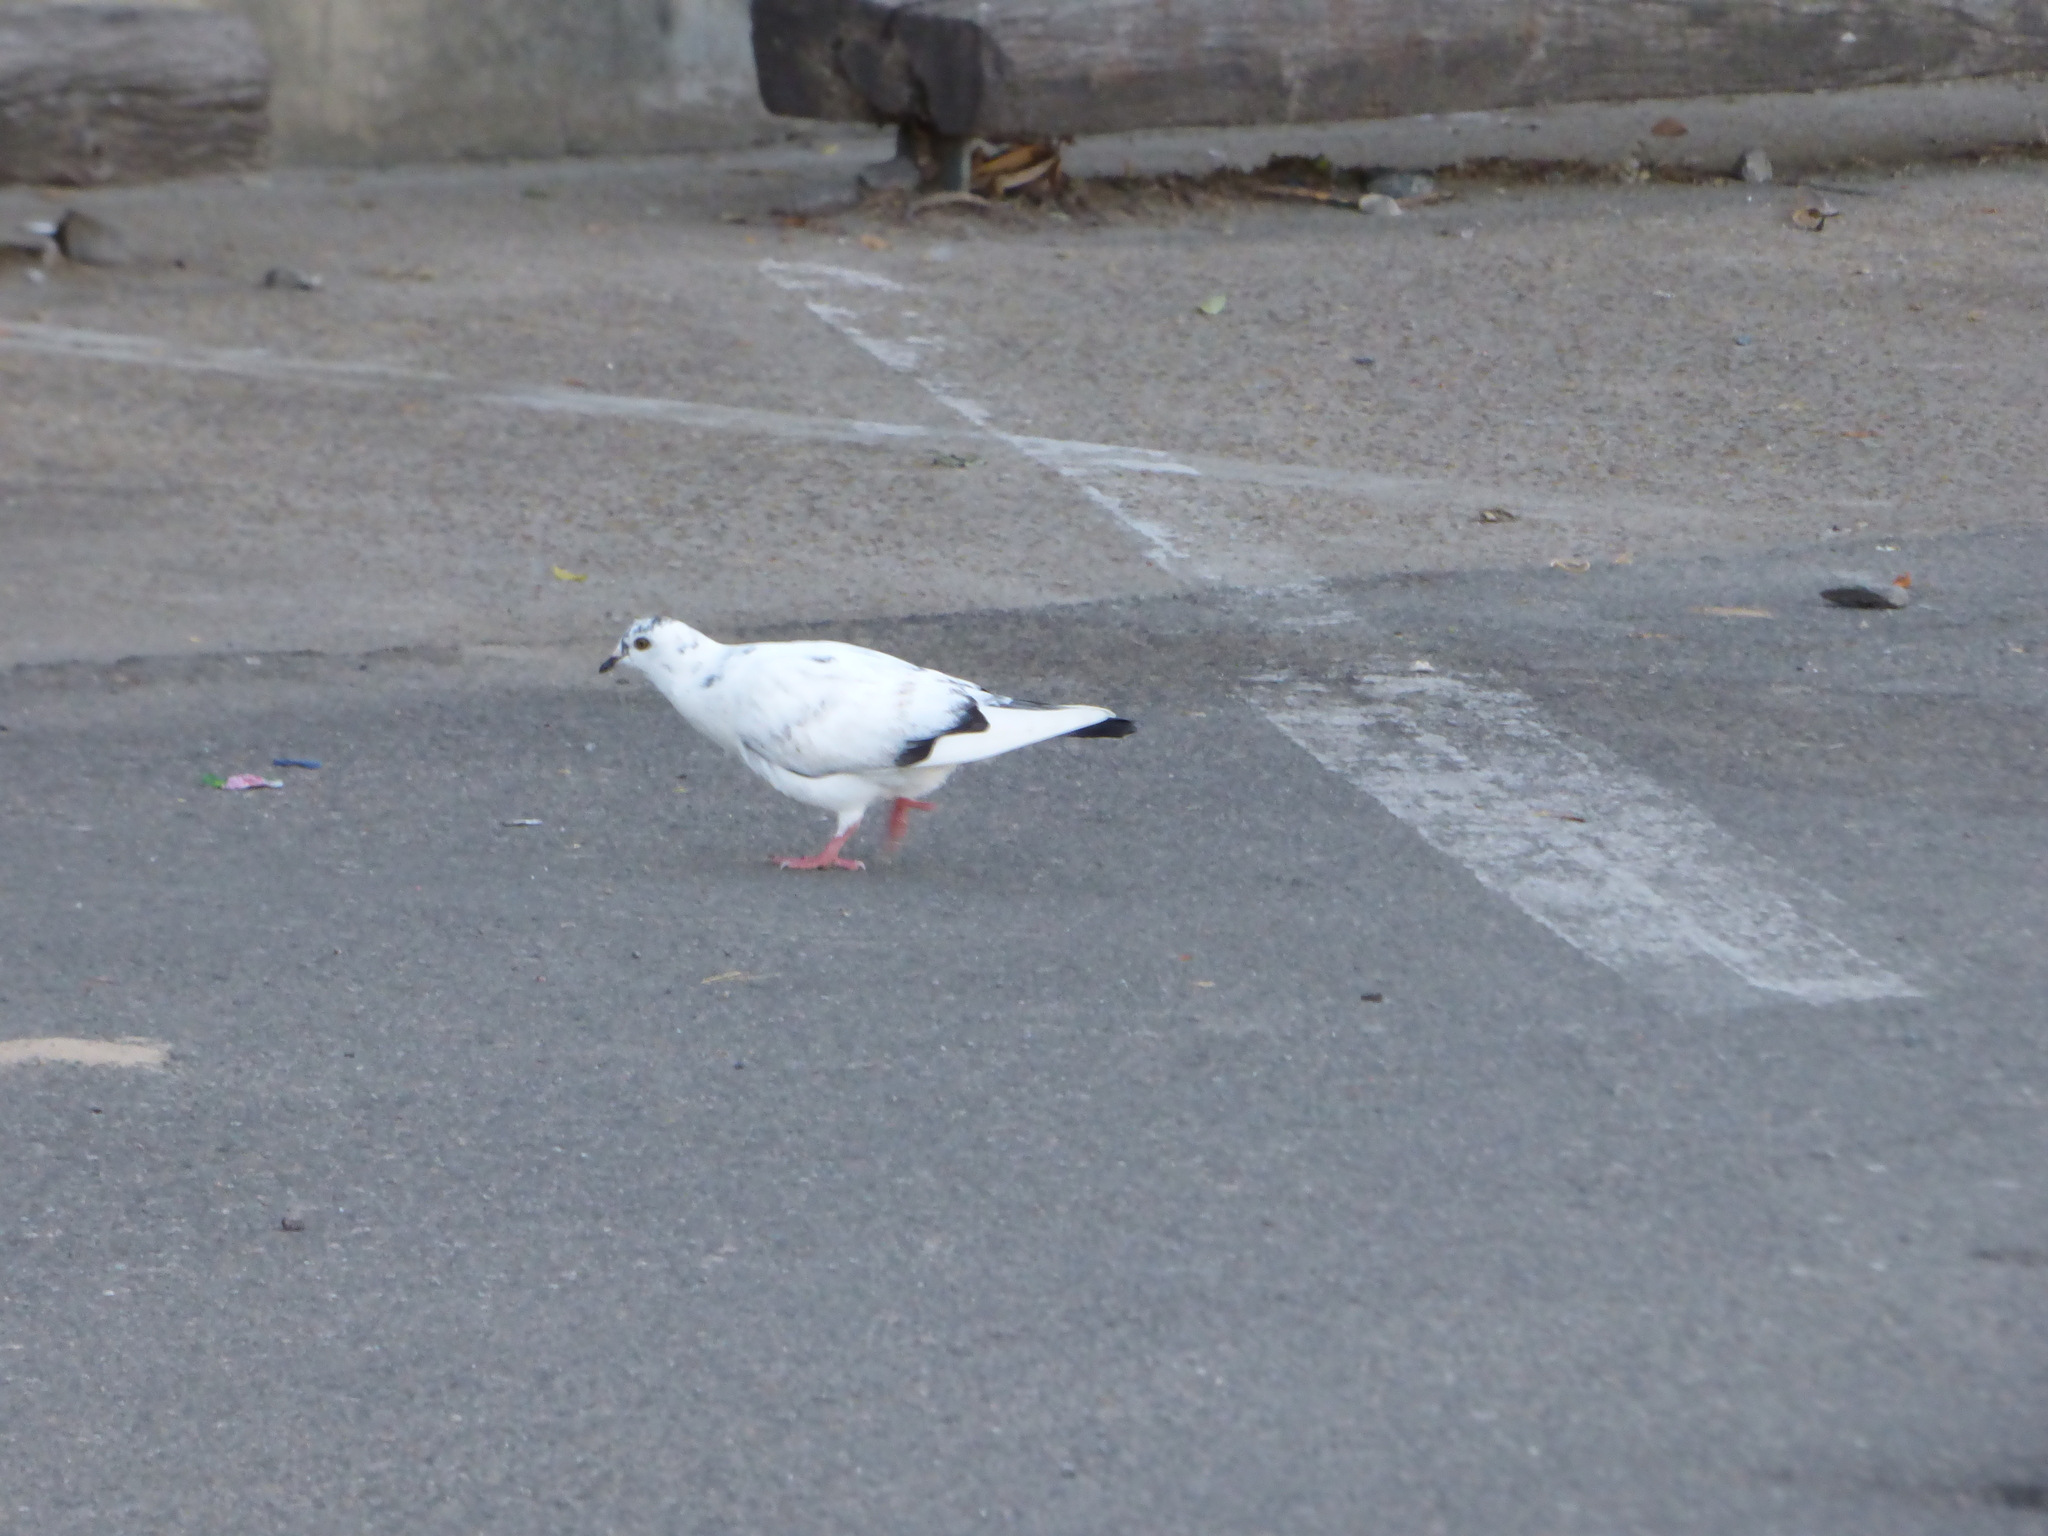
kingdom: Animalia
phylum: Chordata
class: Aves
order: Columbiformes
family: Columbidae
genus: Columba
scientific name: Columba livia
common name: Rock pigeon
